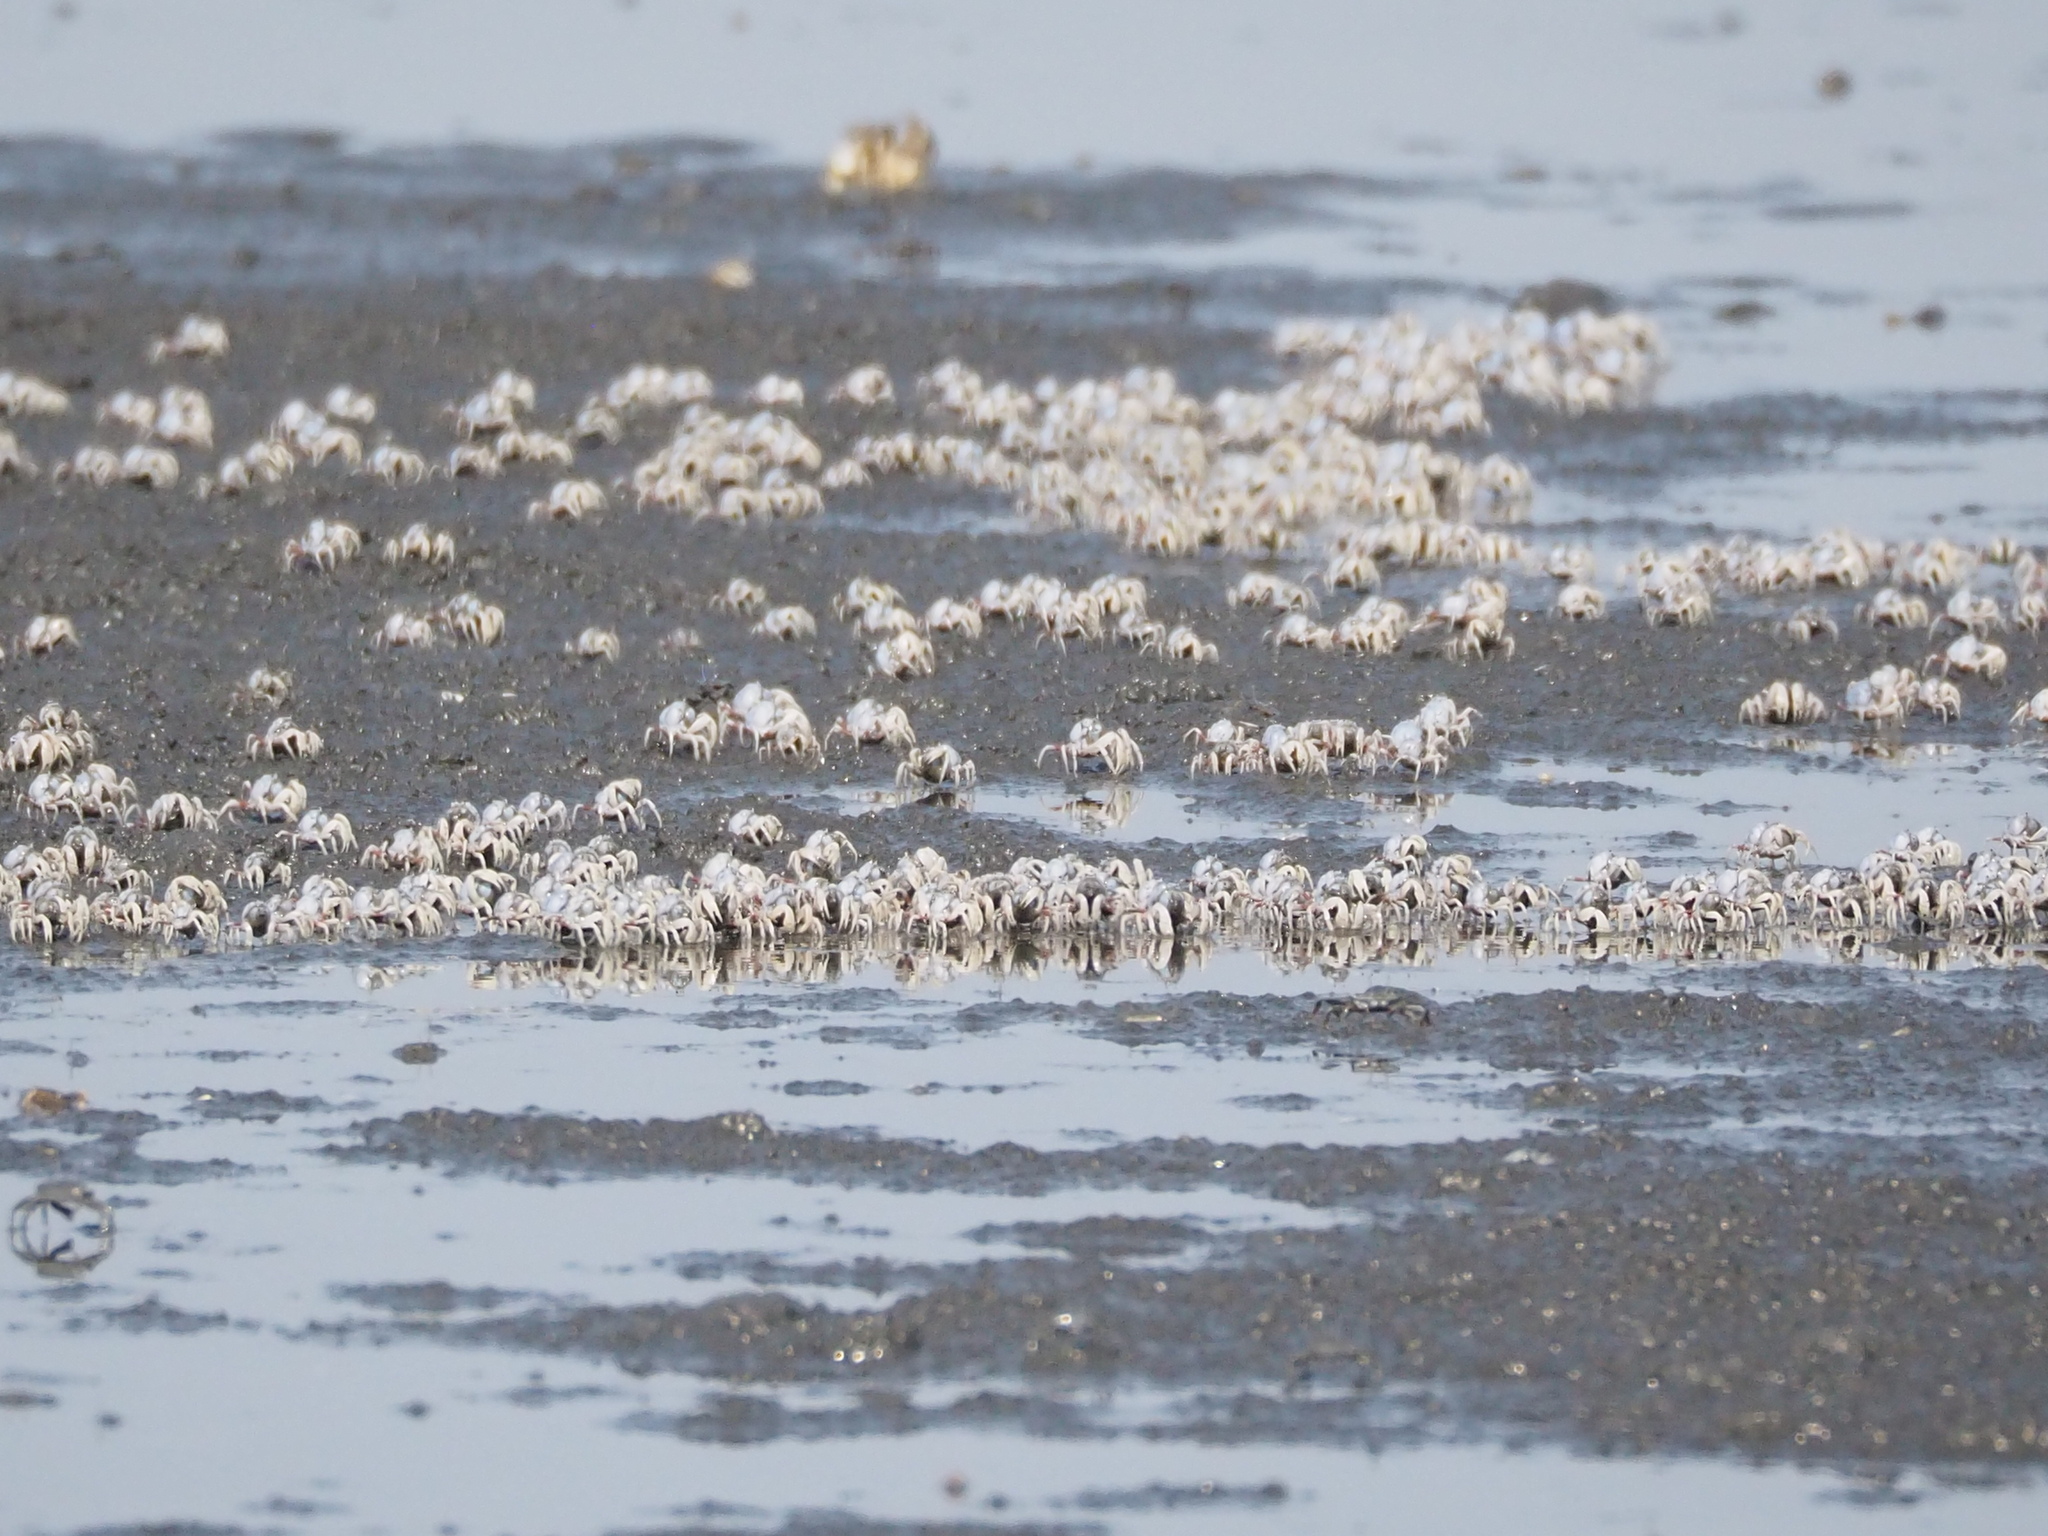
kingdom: Animalia
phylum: Arthropoda
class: Malacostraca
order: Decapoda
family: Mictyridae
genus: Mictyris
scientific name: Mictyris brevidactylus
